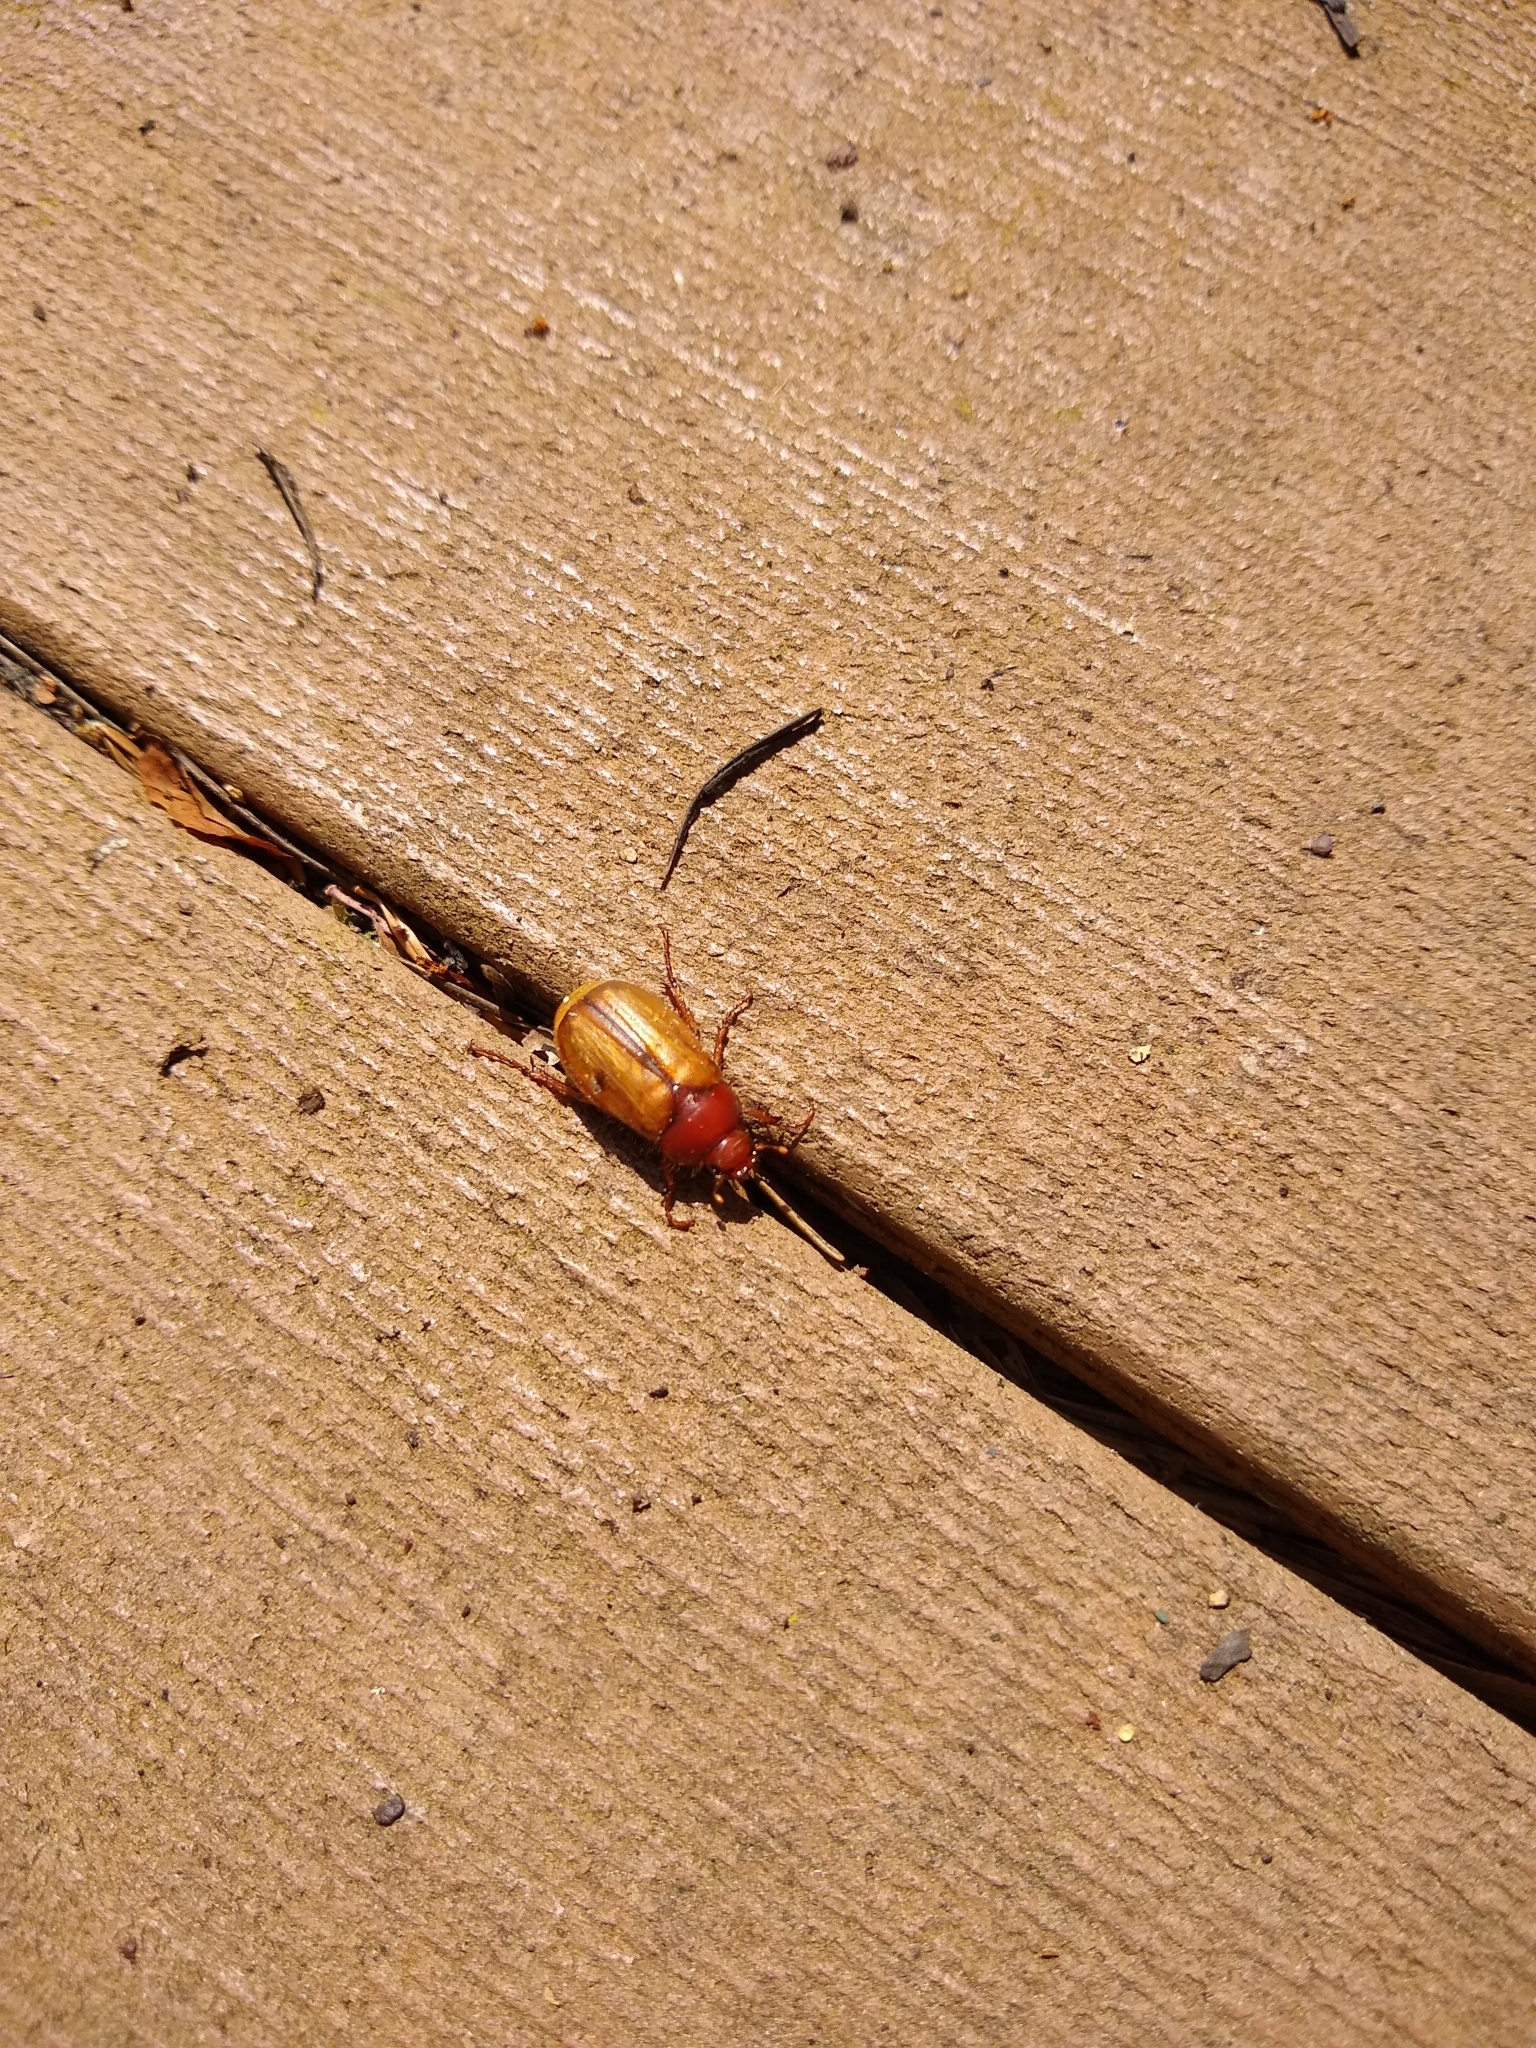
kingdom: Animalia
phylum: Arthropoda
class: Insecta
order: Coleoptera
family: Scarabaeidae
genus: Amphimallon
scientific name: Amphimallon majale
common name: European chafer
